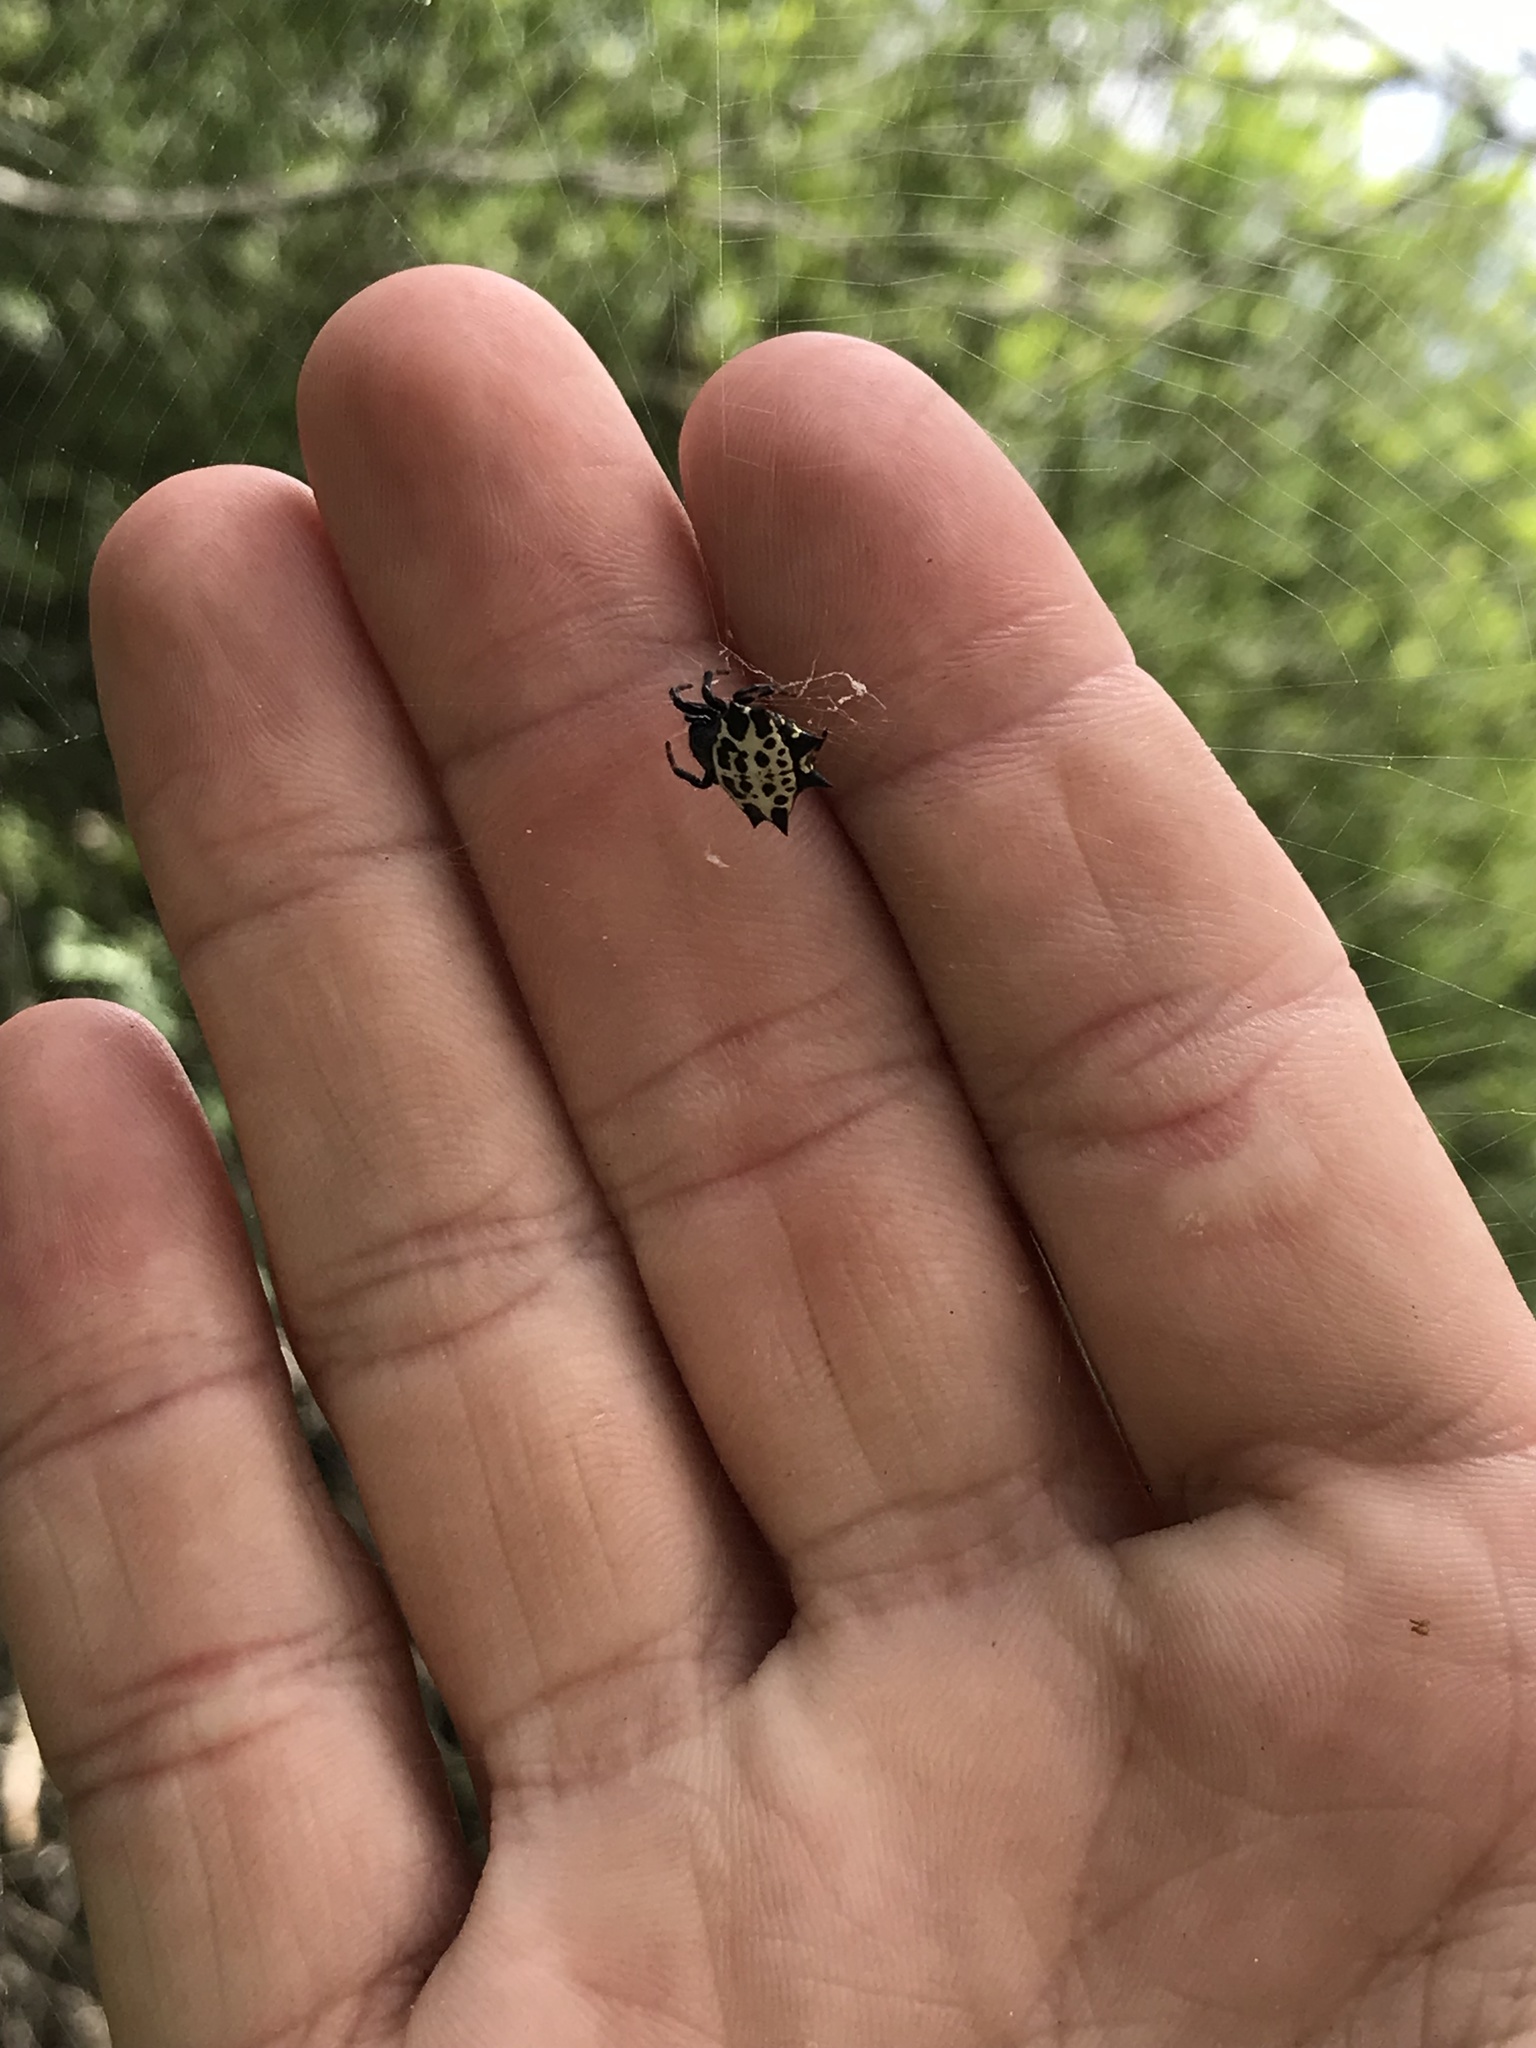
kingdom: Animalia
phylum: Arthropoda
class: Arachnida
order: Araneae
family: Araneidae
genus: Gasteracantha
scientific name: Gasteracantha cancriformis
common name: Orb weavers
